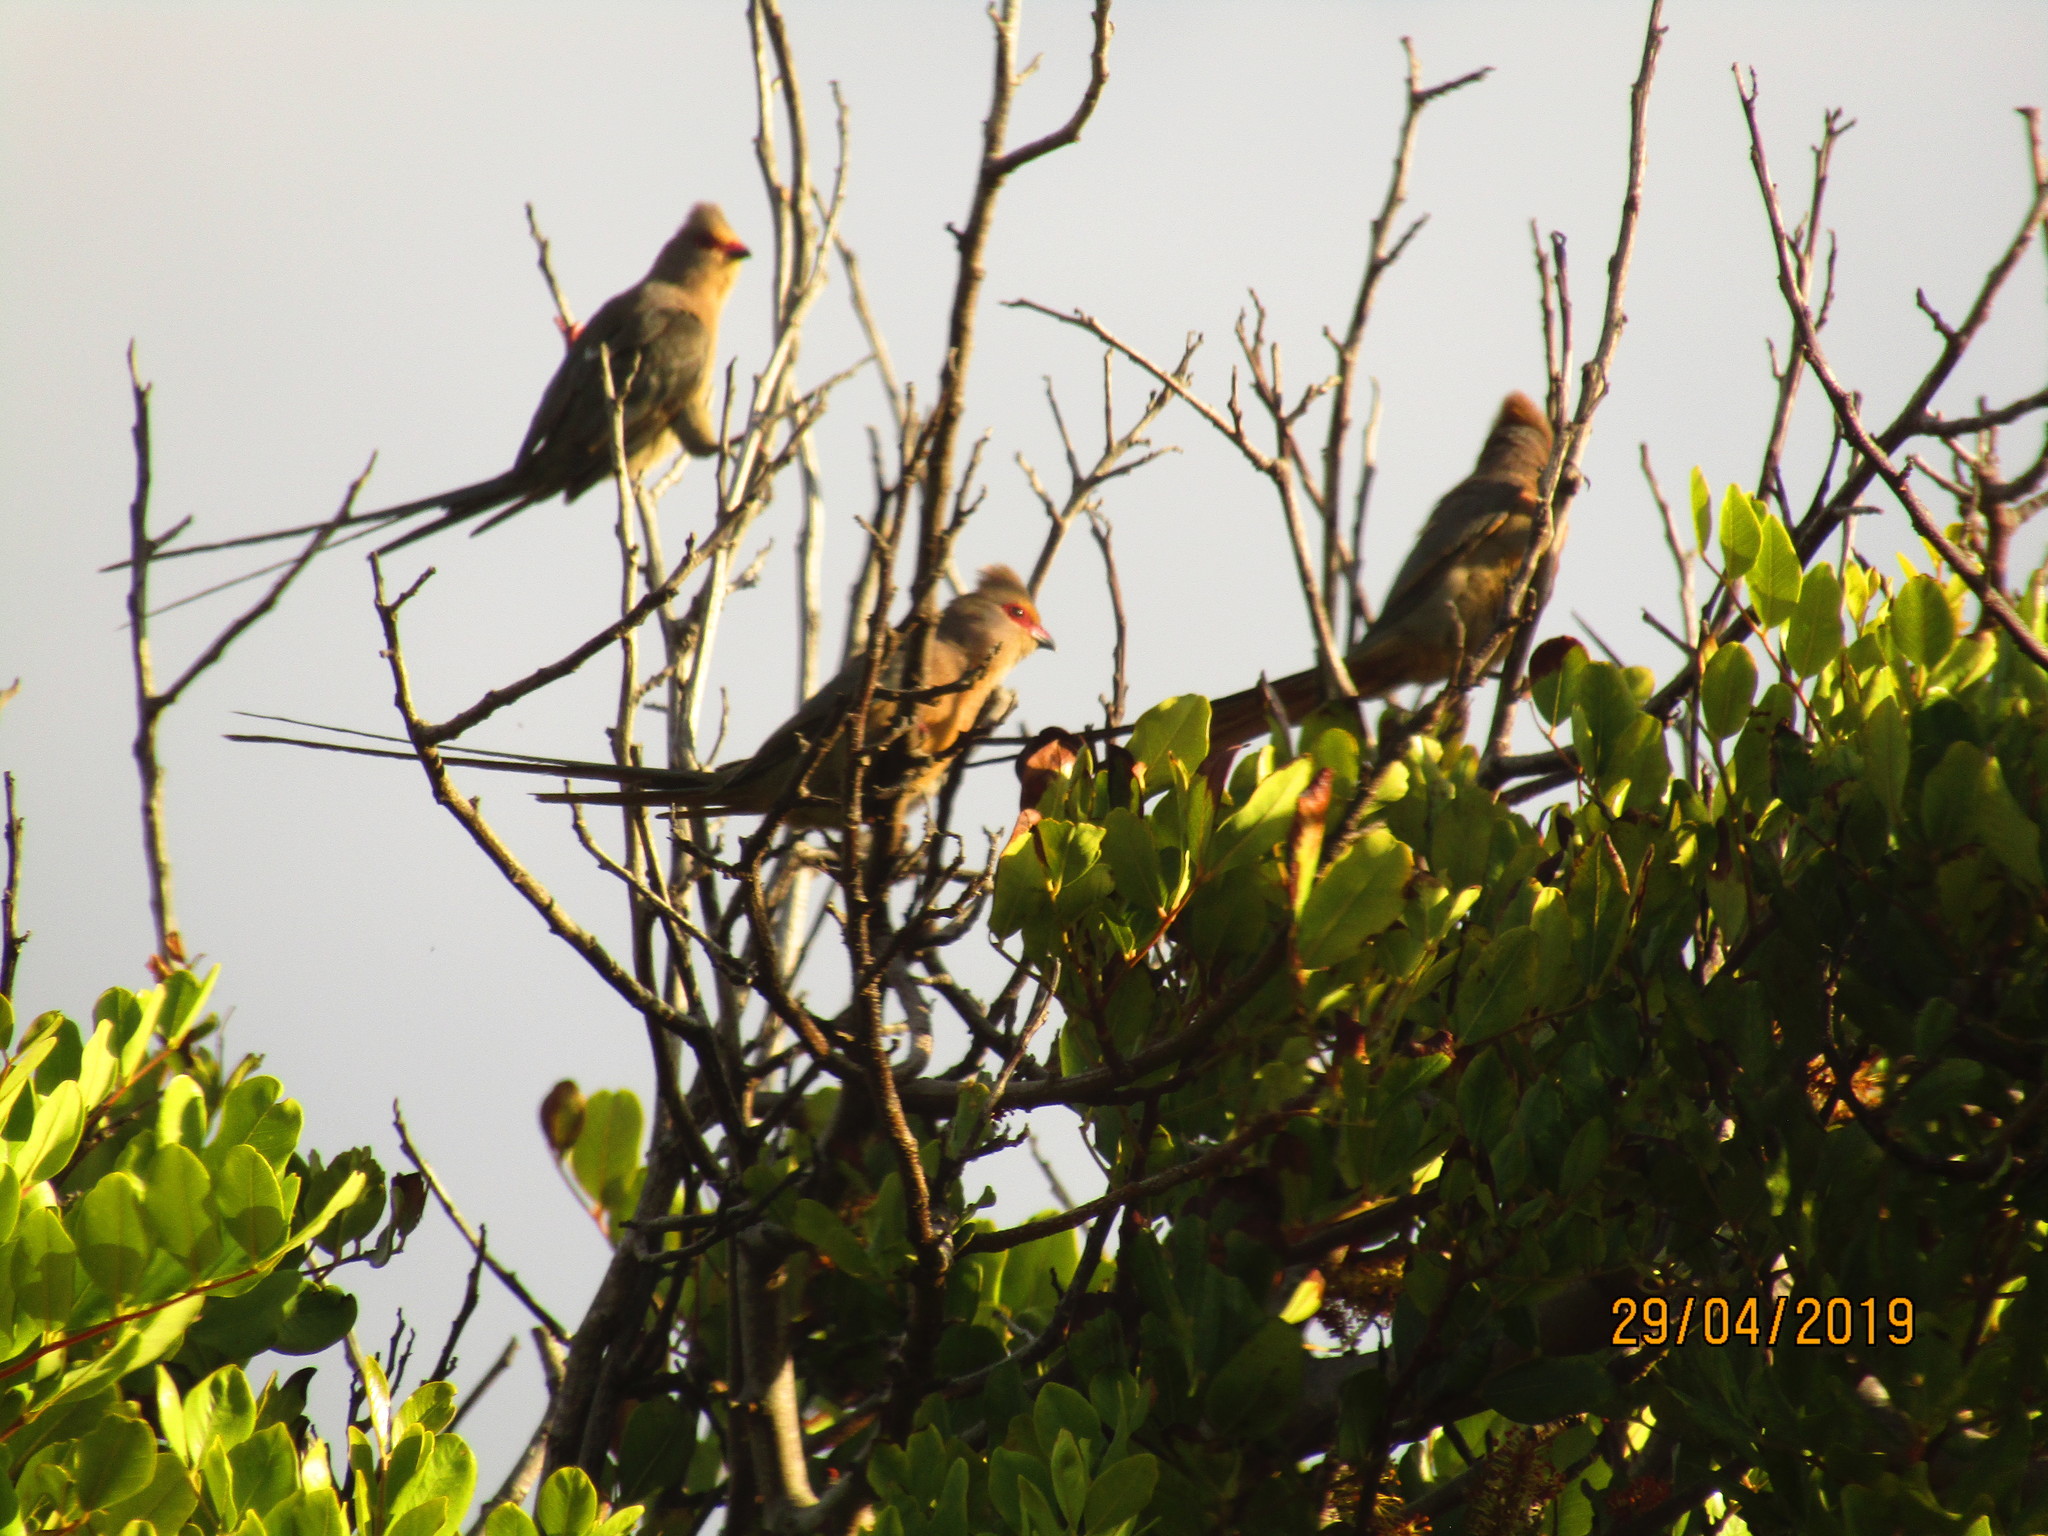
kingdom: Animalia
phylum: Chordata
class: Aves
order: Coliiformes
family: Coliidae
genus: Urocolius
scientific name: Urocolius indicus
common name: Red-faced mousebird
